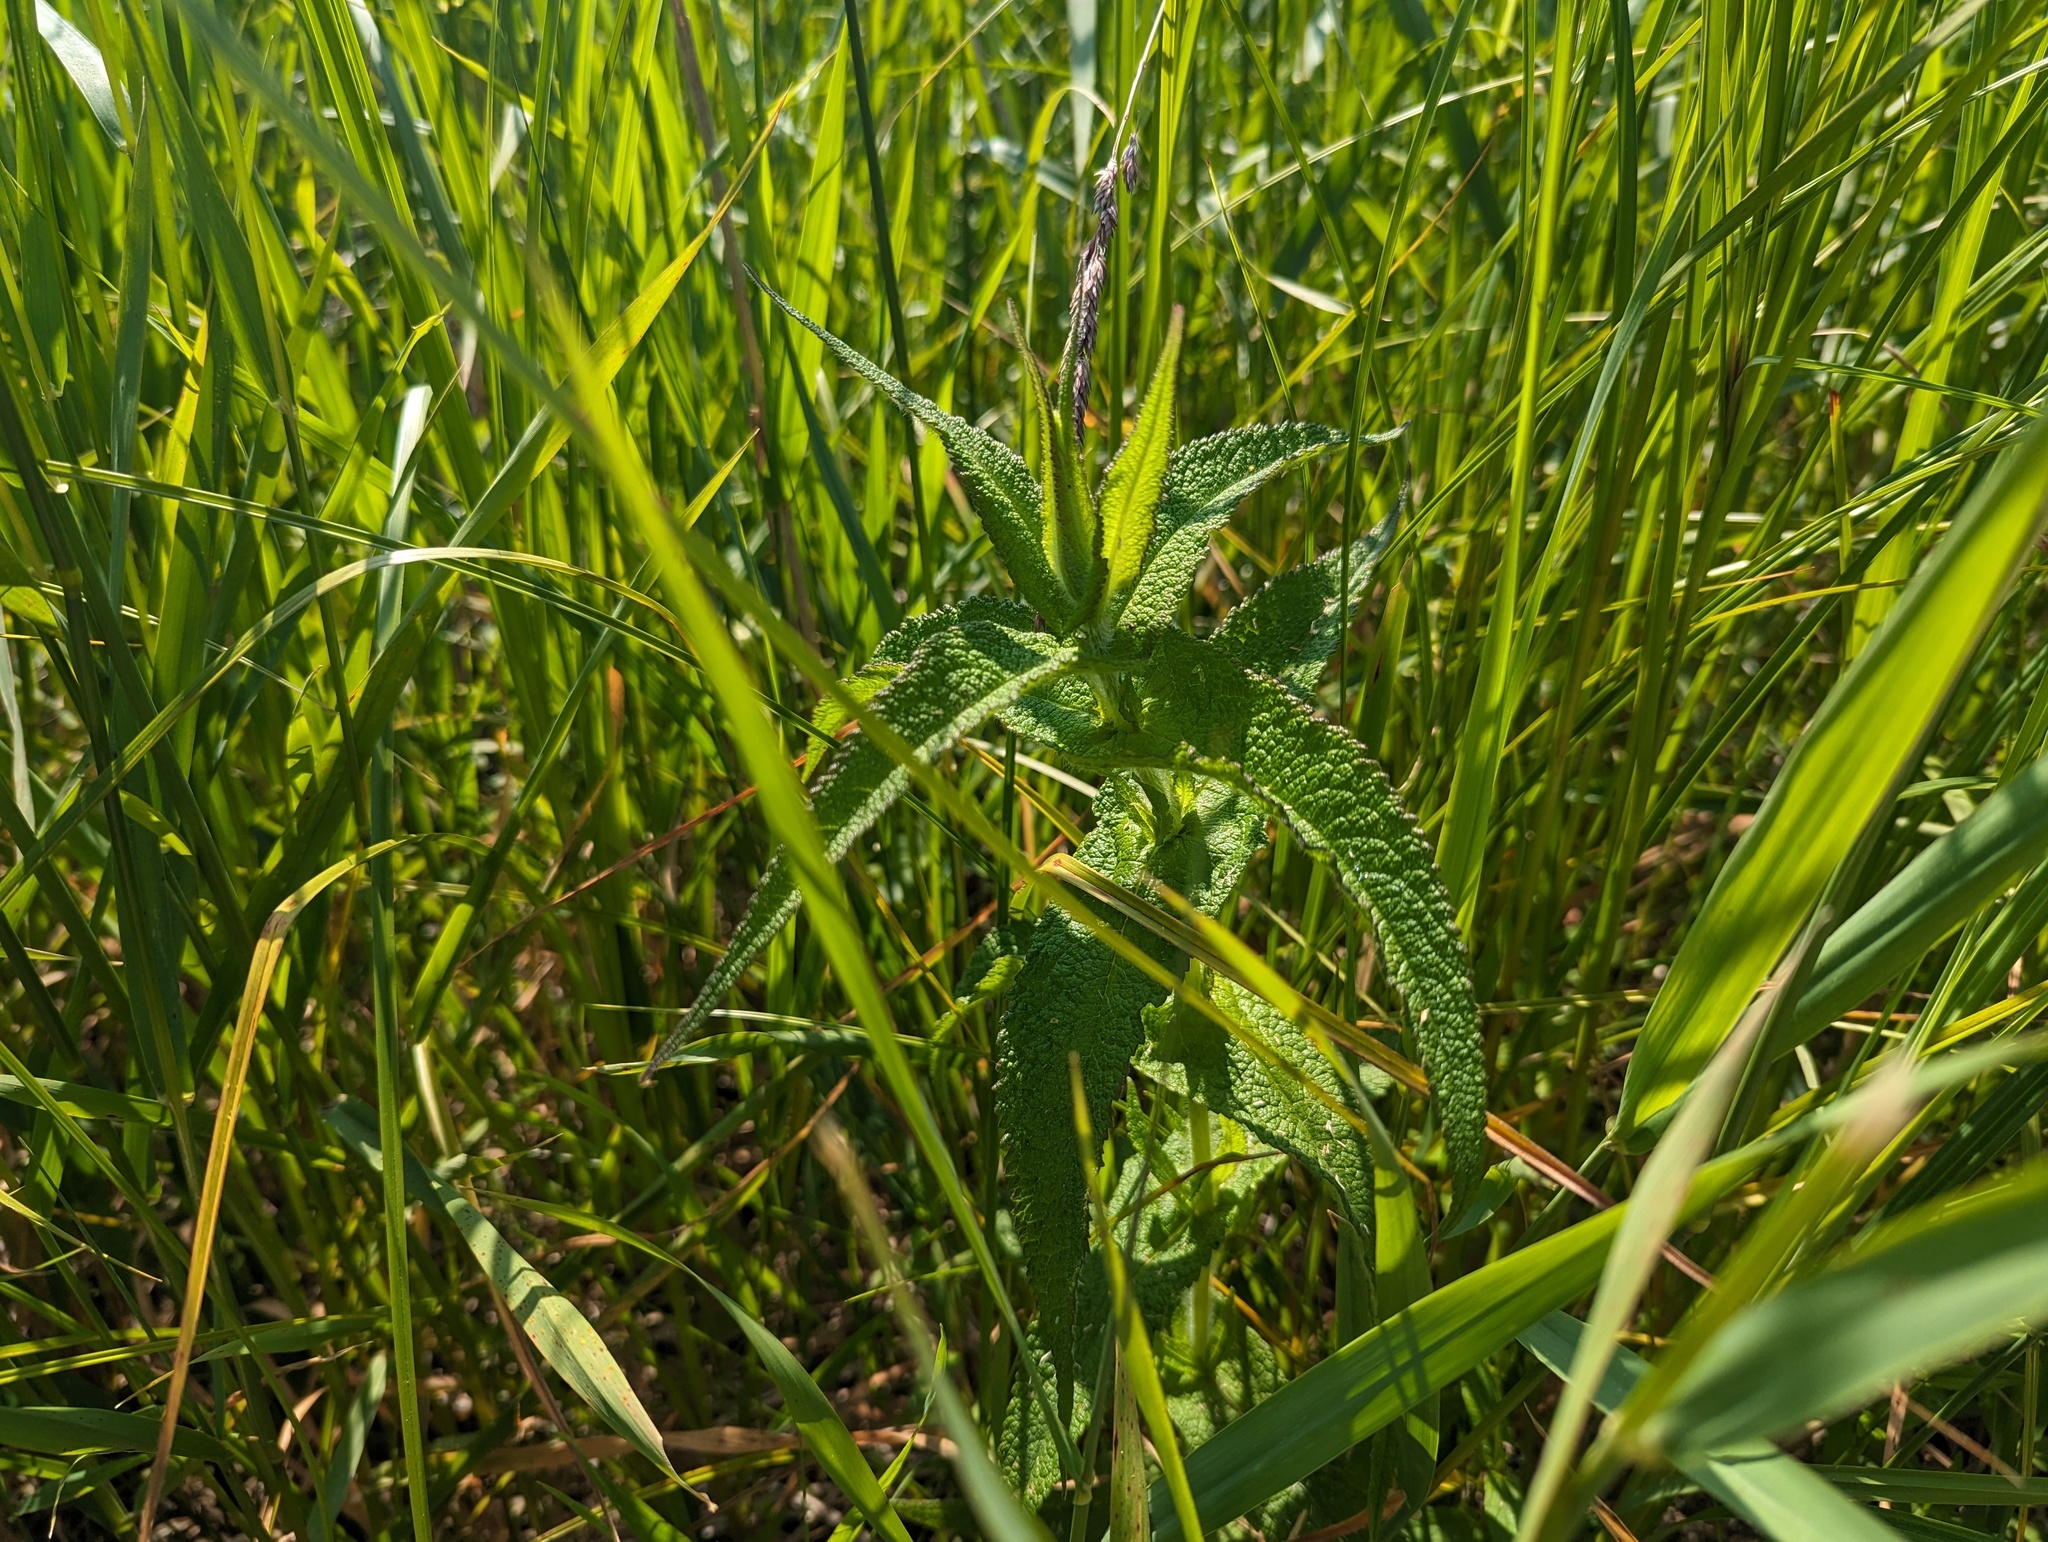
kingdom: Plantae
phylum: Tracheophyta
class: Magnoliopsida
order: Asterales
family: Asteraceae
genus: Eupatorium
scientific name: Eupatorium perfoliatum
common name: Boneset
